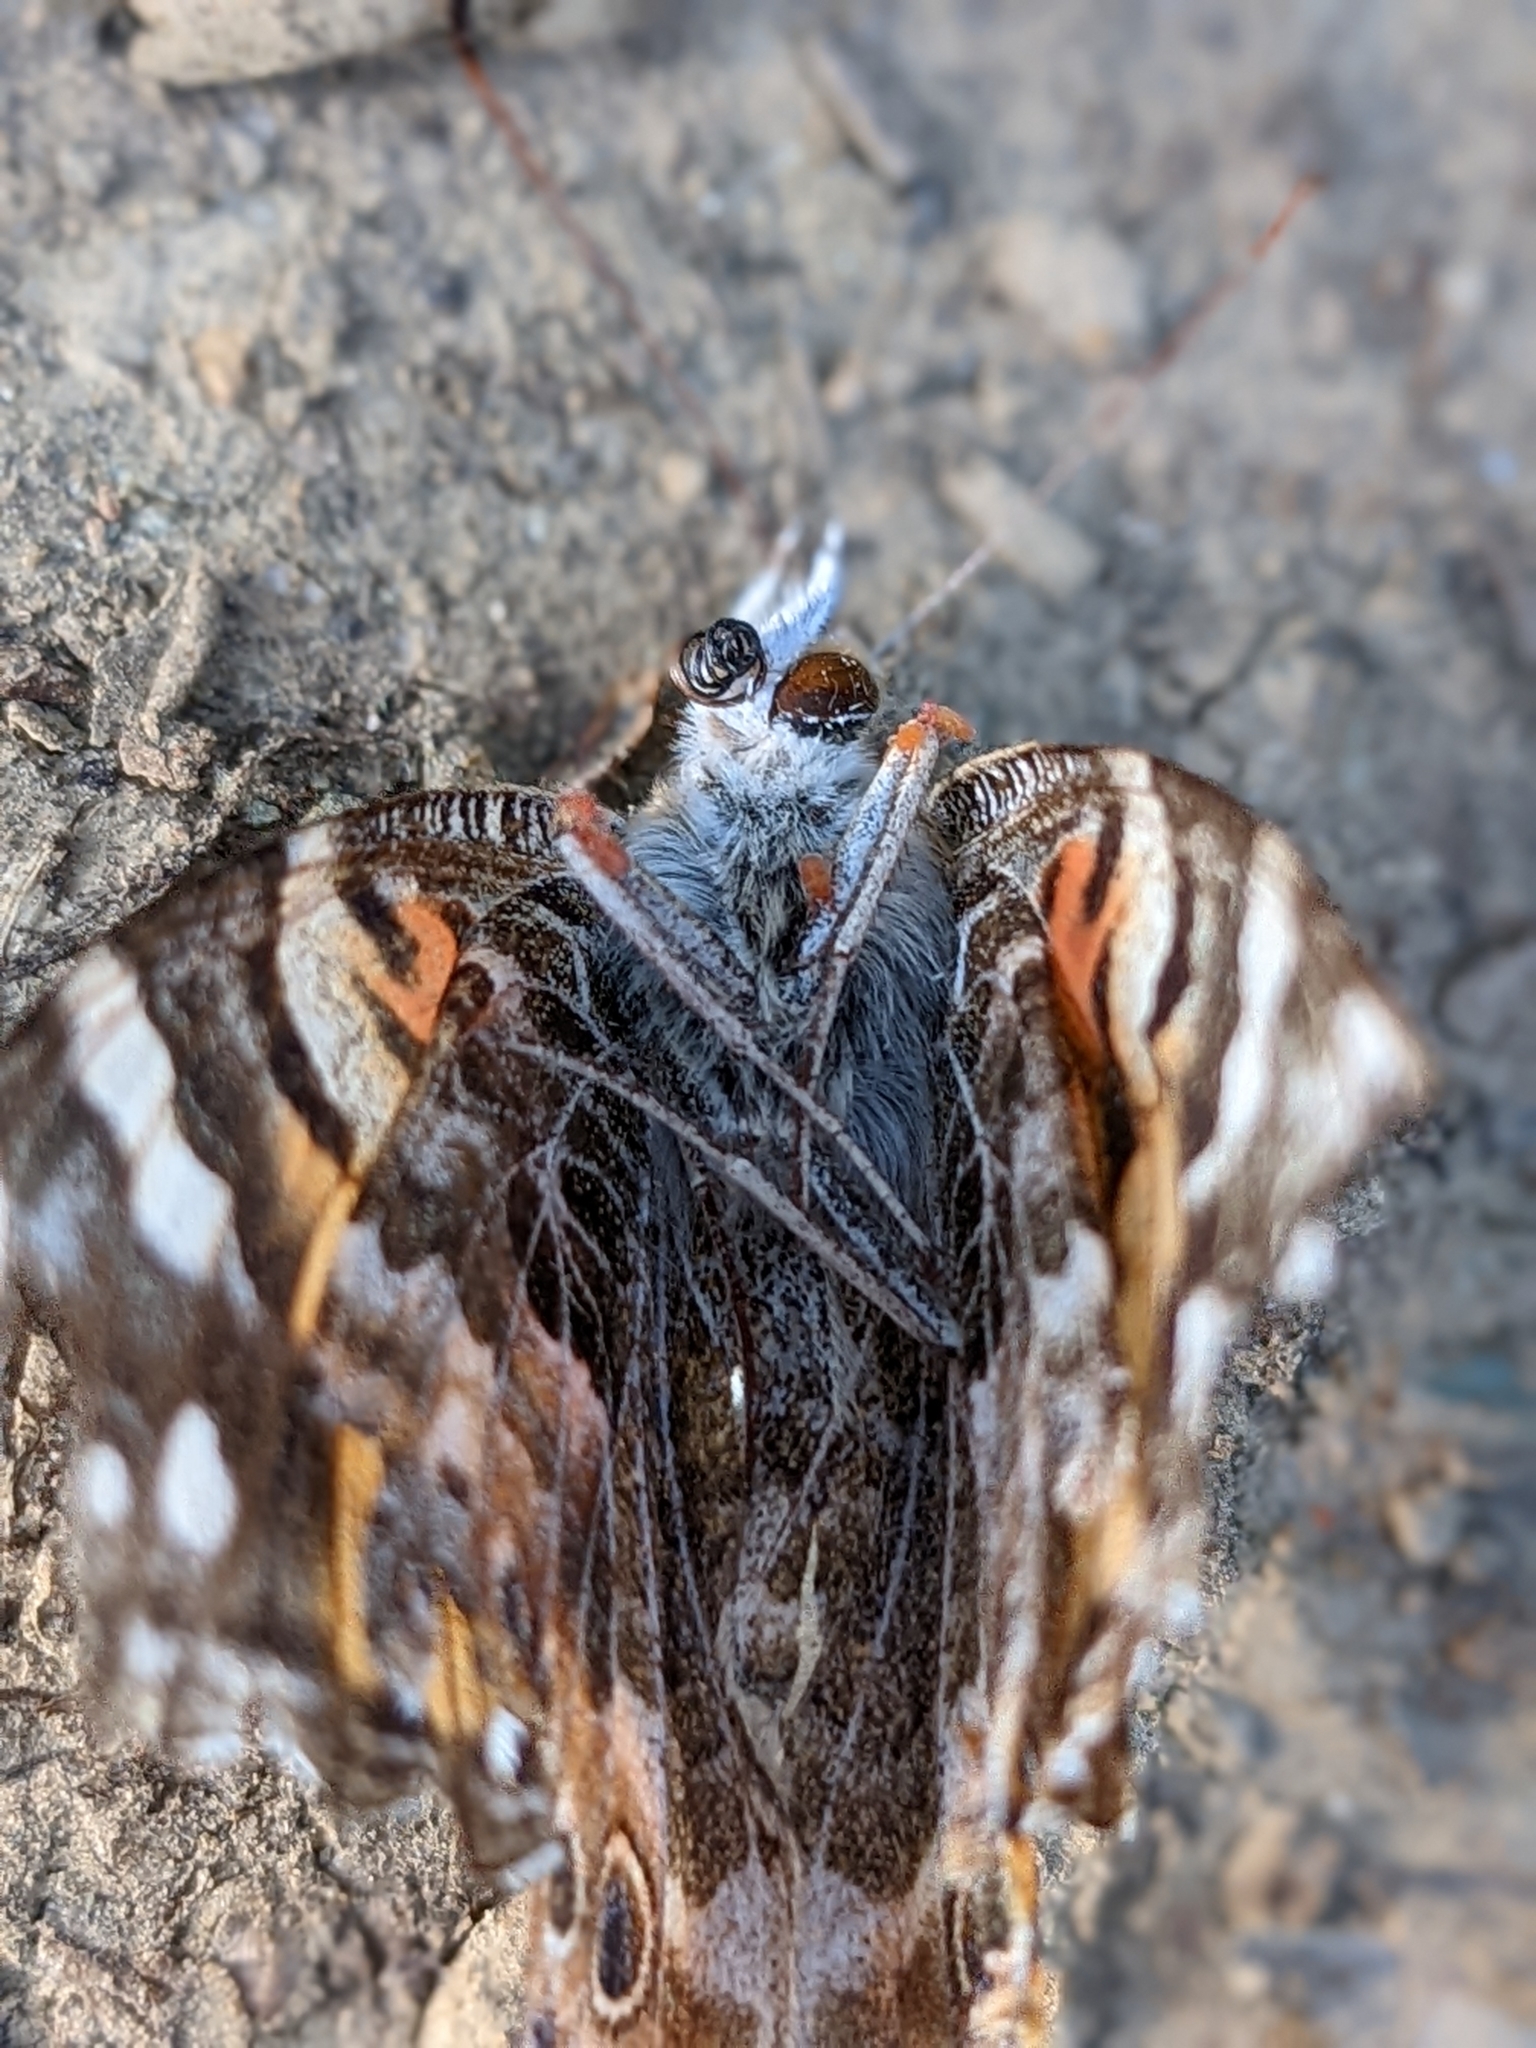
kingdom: Animalia
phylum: Arthropoda
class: Insecta
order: Lepidoptera
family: Nymphalidae
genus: Vanessa
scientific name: Vanessa cardui
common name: Painted lady
